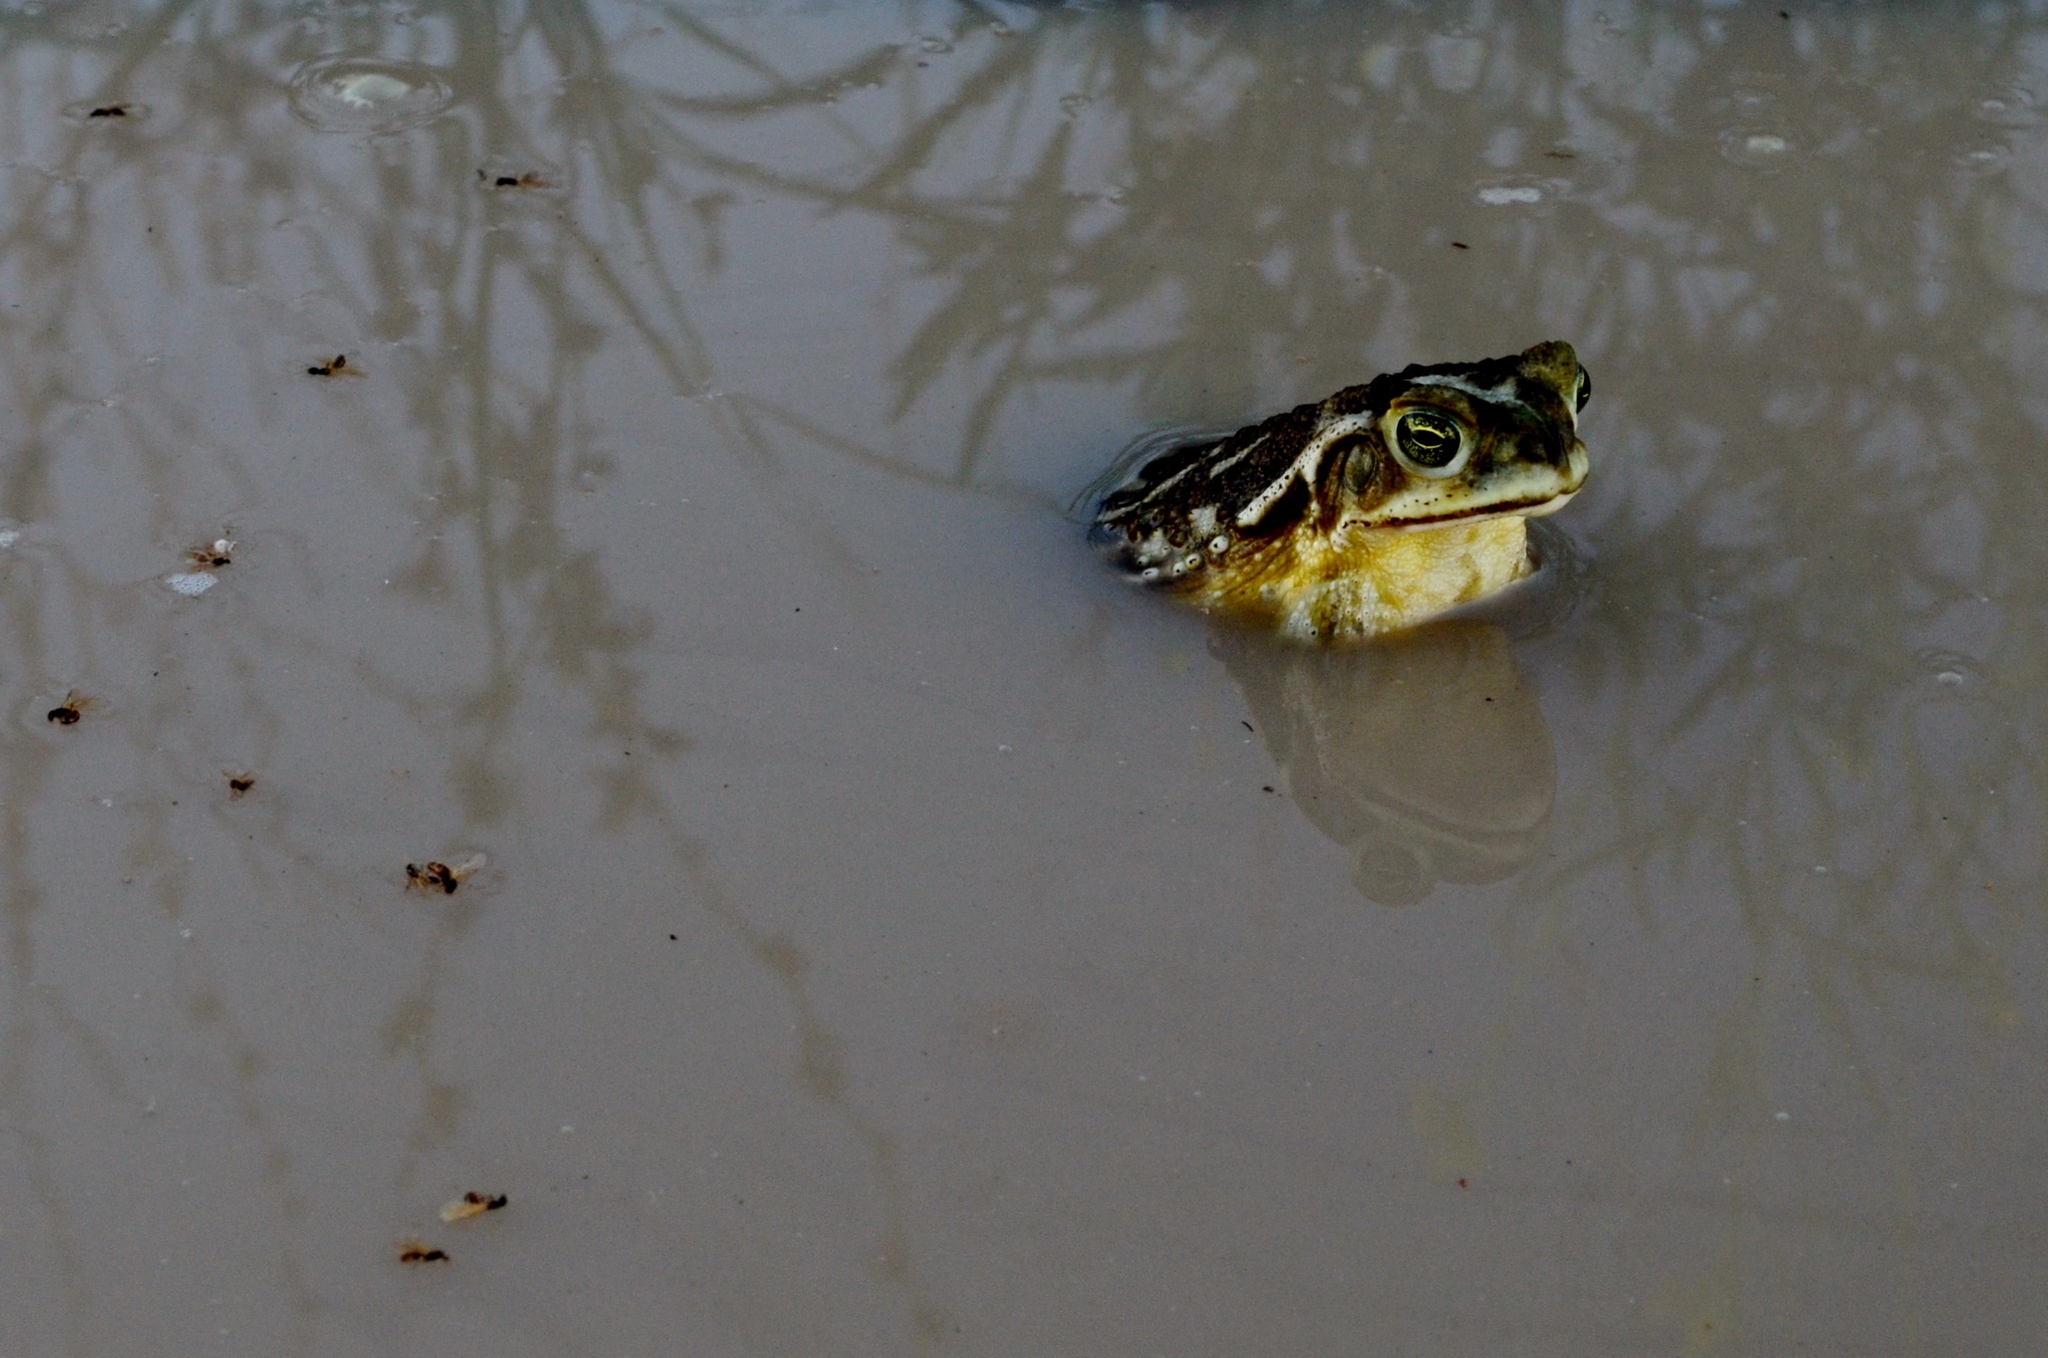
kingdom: Animalia
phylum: Chordata
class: Amphibia
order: Anura
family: Bufonidae
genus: Rhinella
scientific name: Rhinella arenarum
